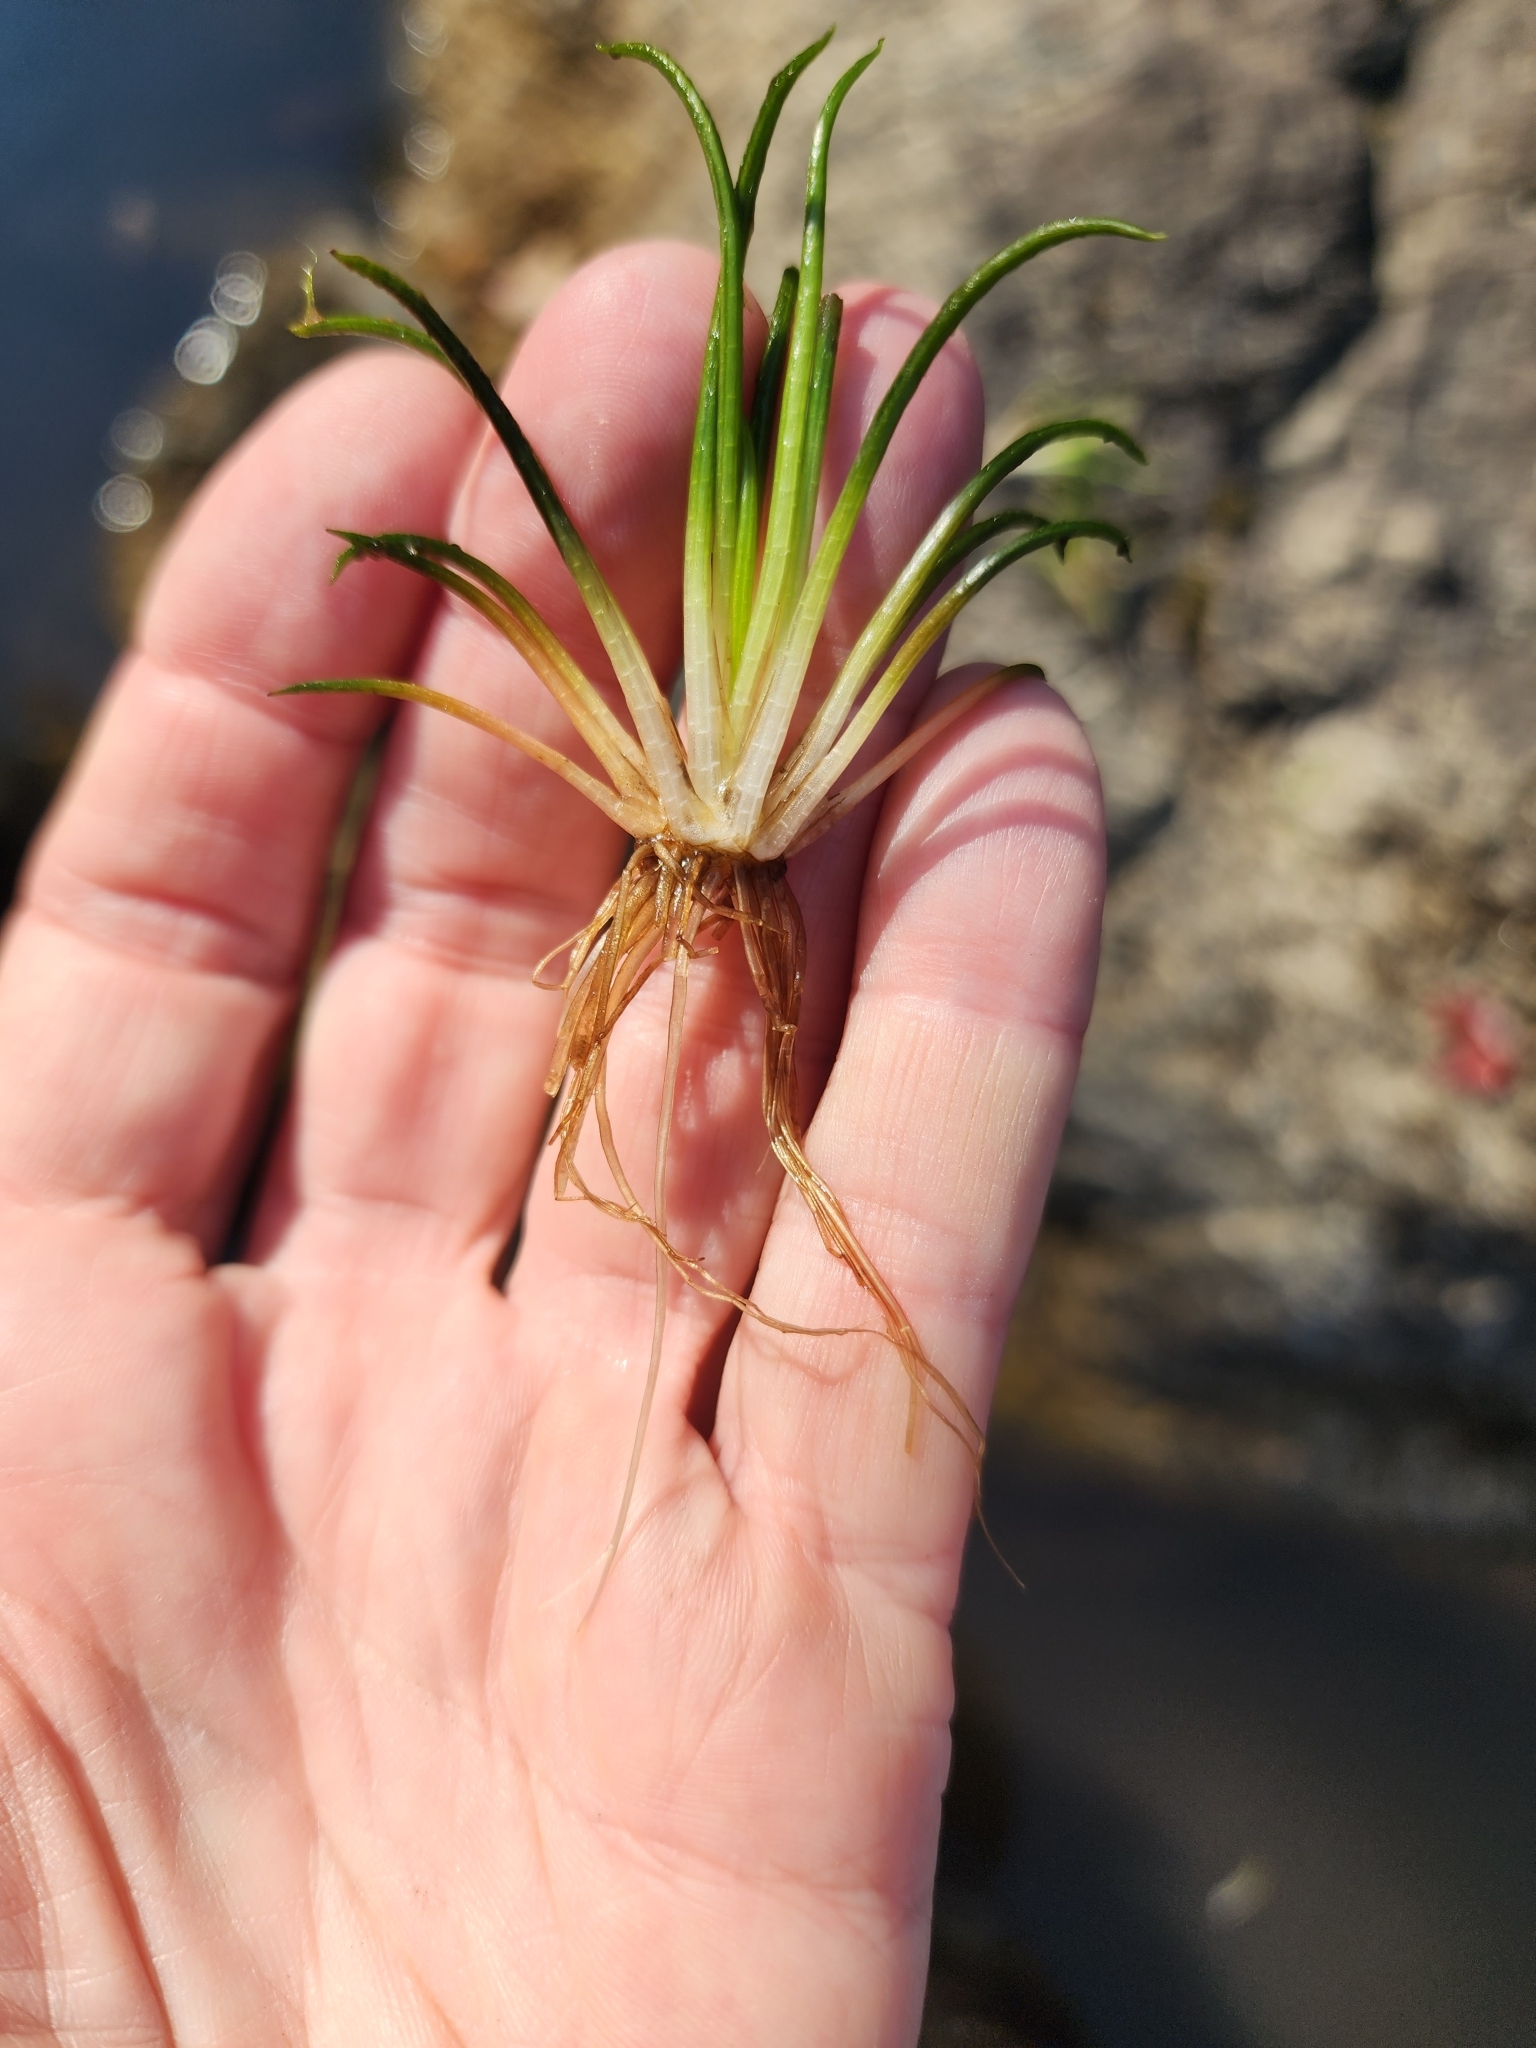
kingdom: Plantae
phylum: Tracheophyta
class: Lycopodiopsida
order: Isoetales
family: Isoetaceae
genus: Isoetes
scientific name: Isoetes echinospora
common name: Spring quillwort
